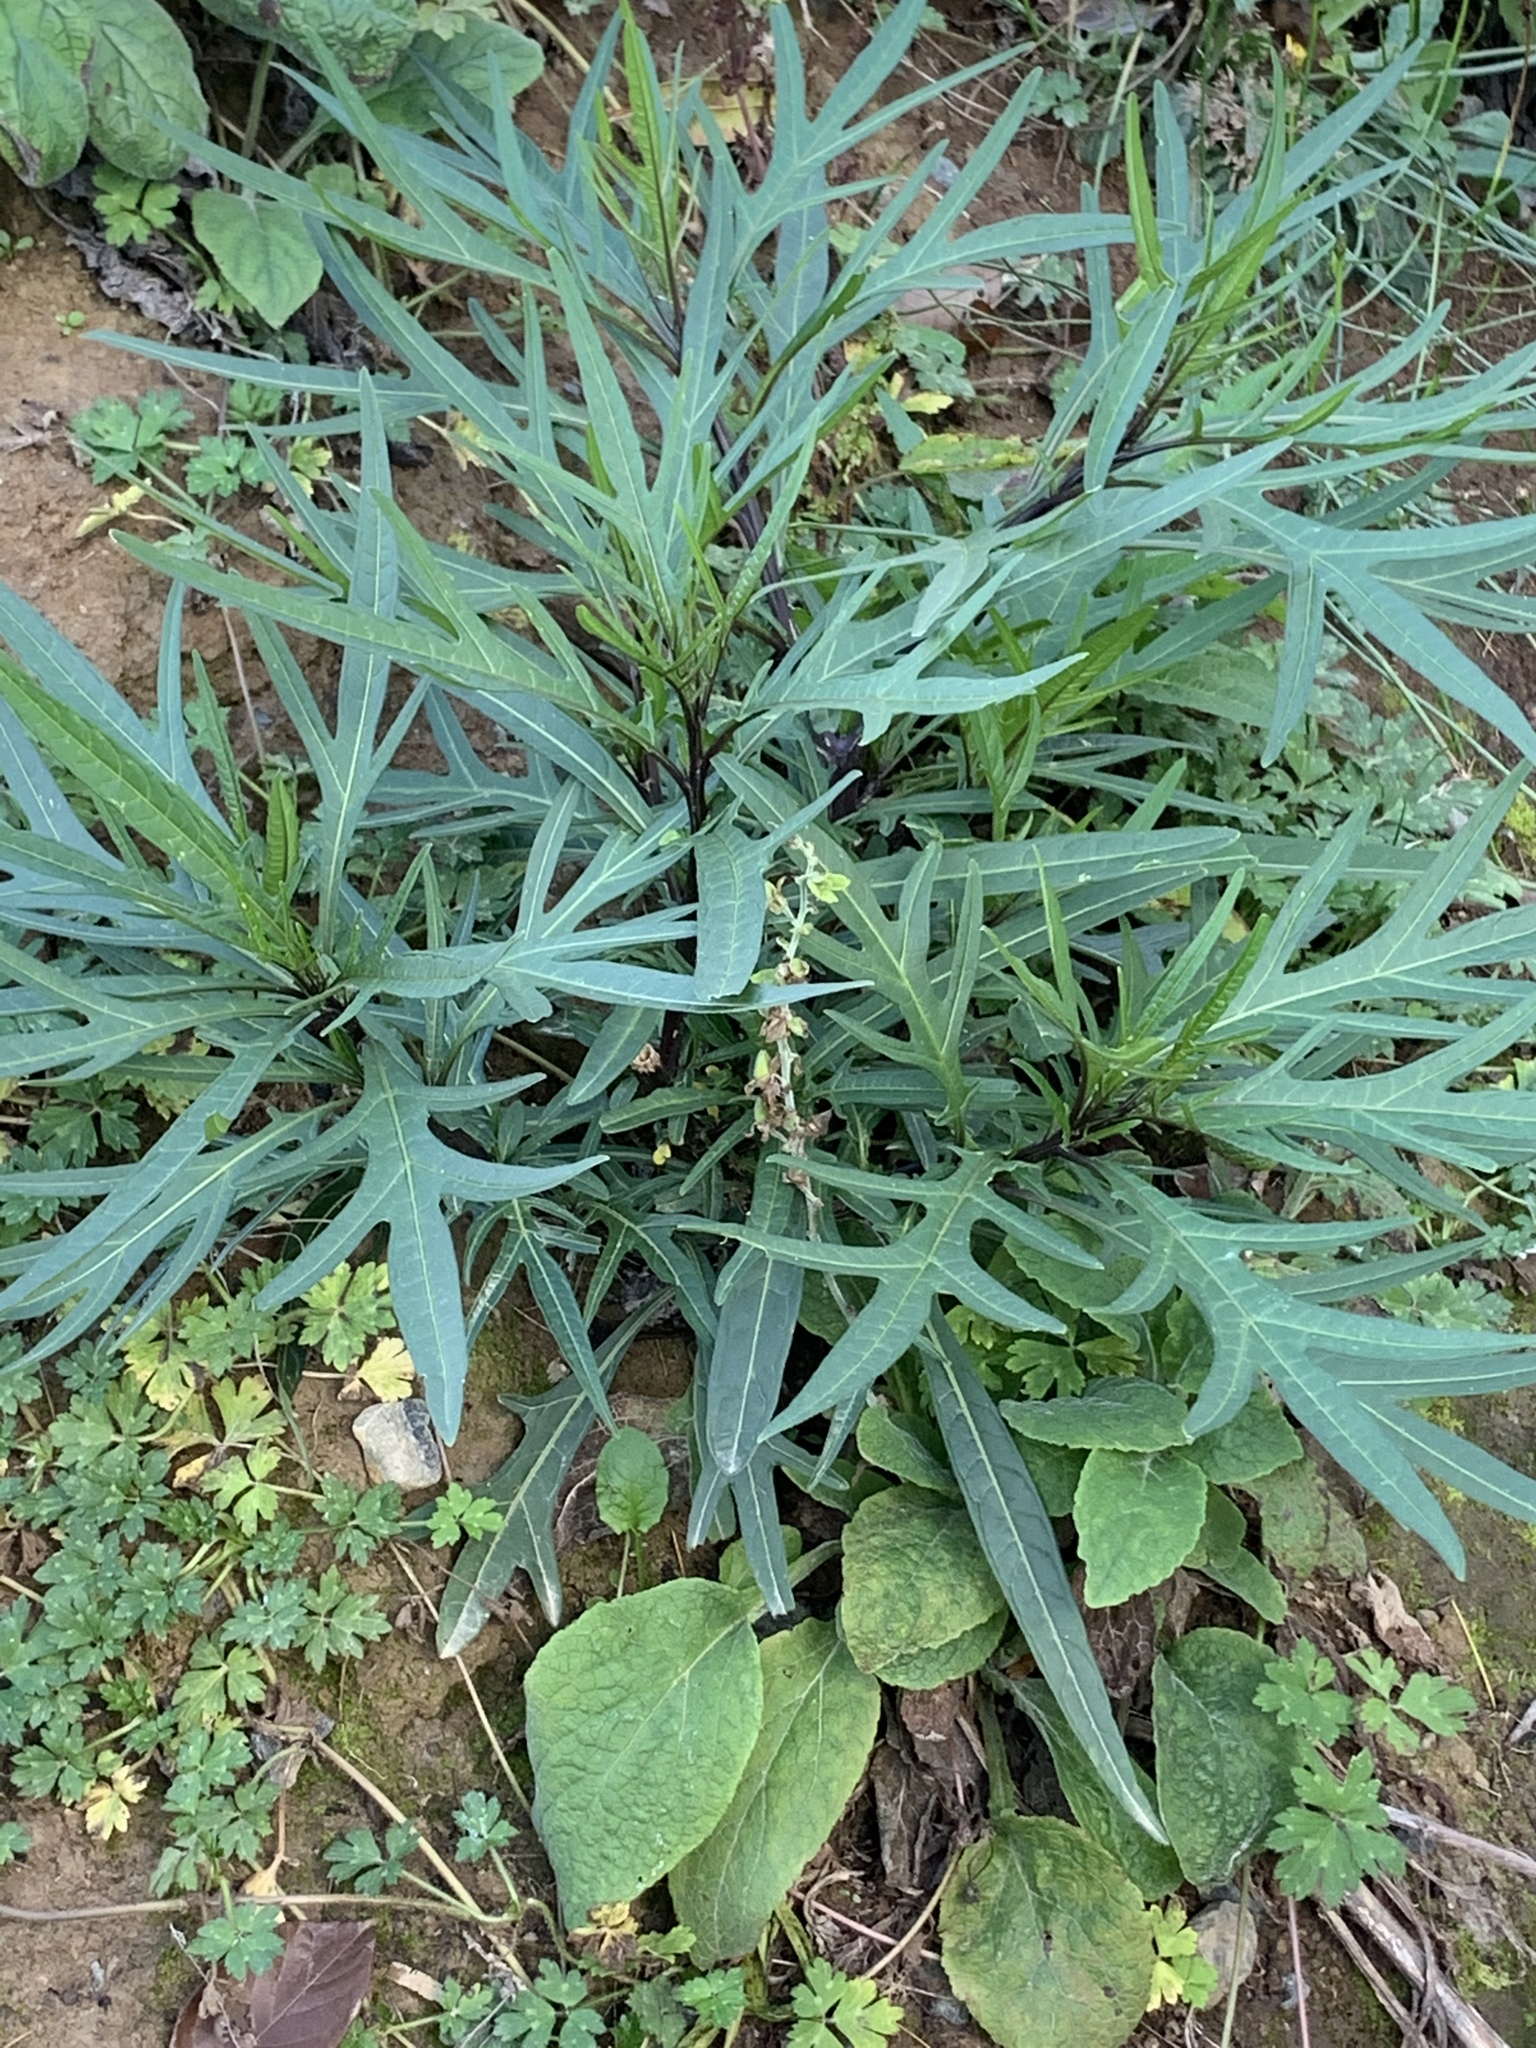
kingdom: Plantae
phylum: Tracheophyta
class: Magnoliopsida
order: Solanales
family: Solanaceae
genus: Solanum
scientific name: Solanum laciniatum
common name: Kangaroo-apple
